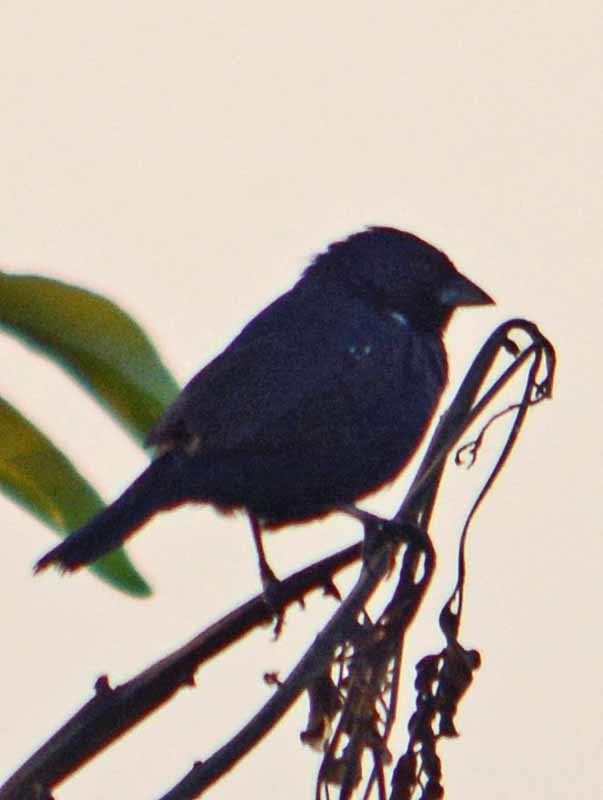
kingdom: Animalia
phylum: Chordata
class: Aves
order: Passeriformes
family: Thraupidae
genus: Volatinia
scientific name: Volatinia jacarina
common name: Blue-black grassquit
